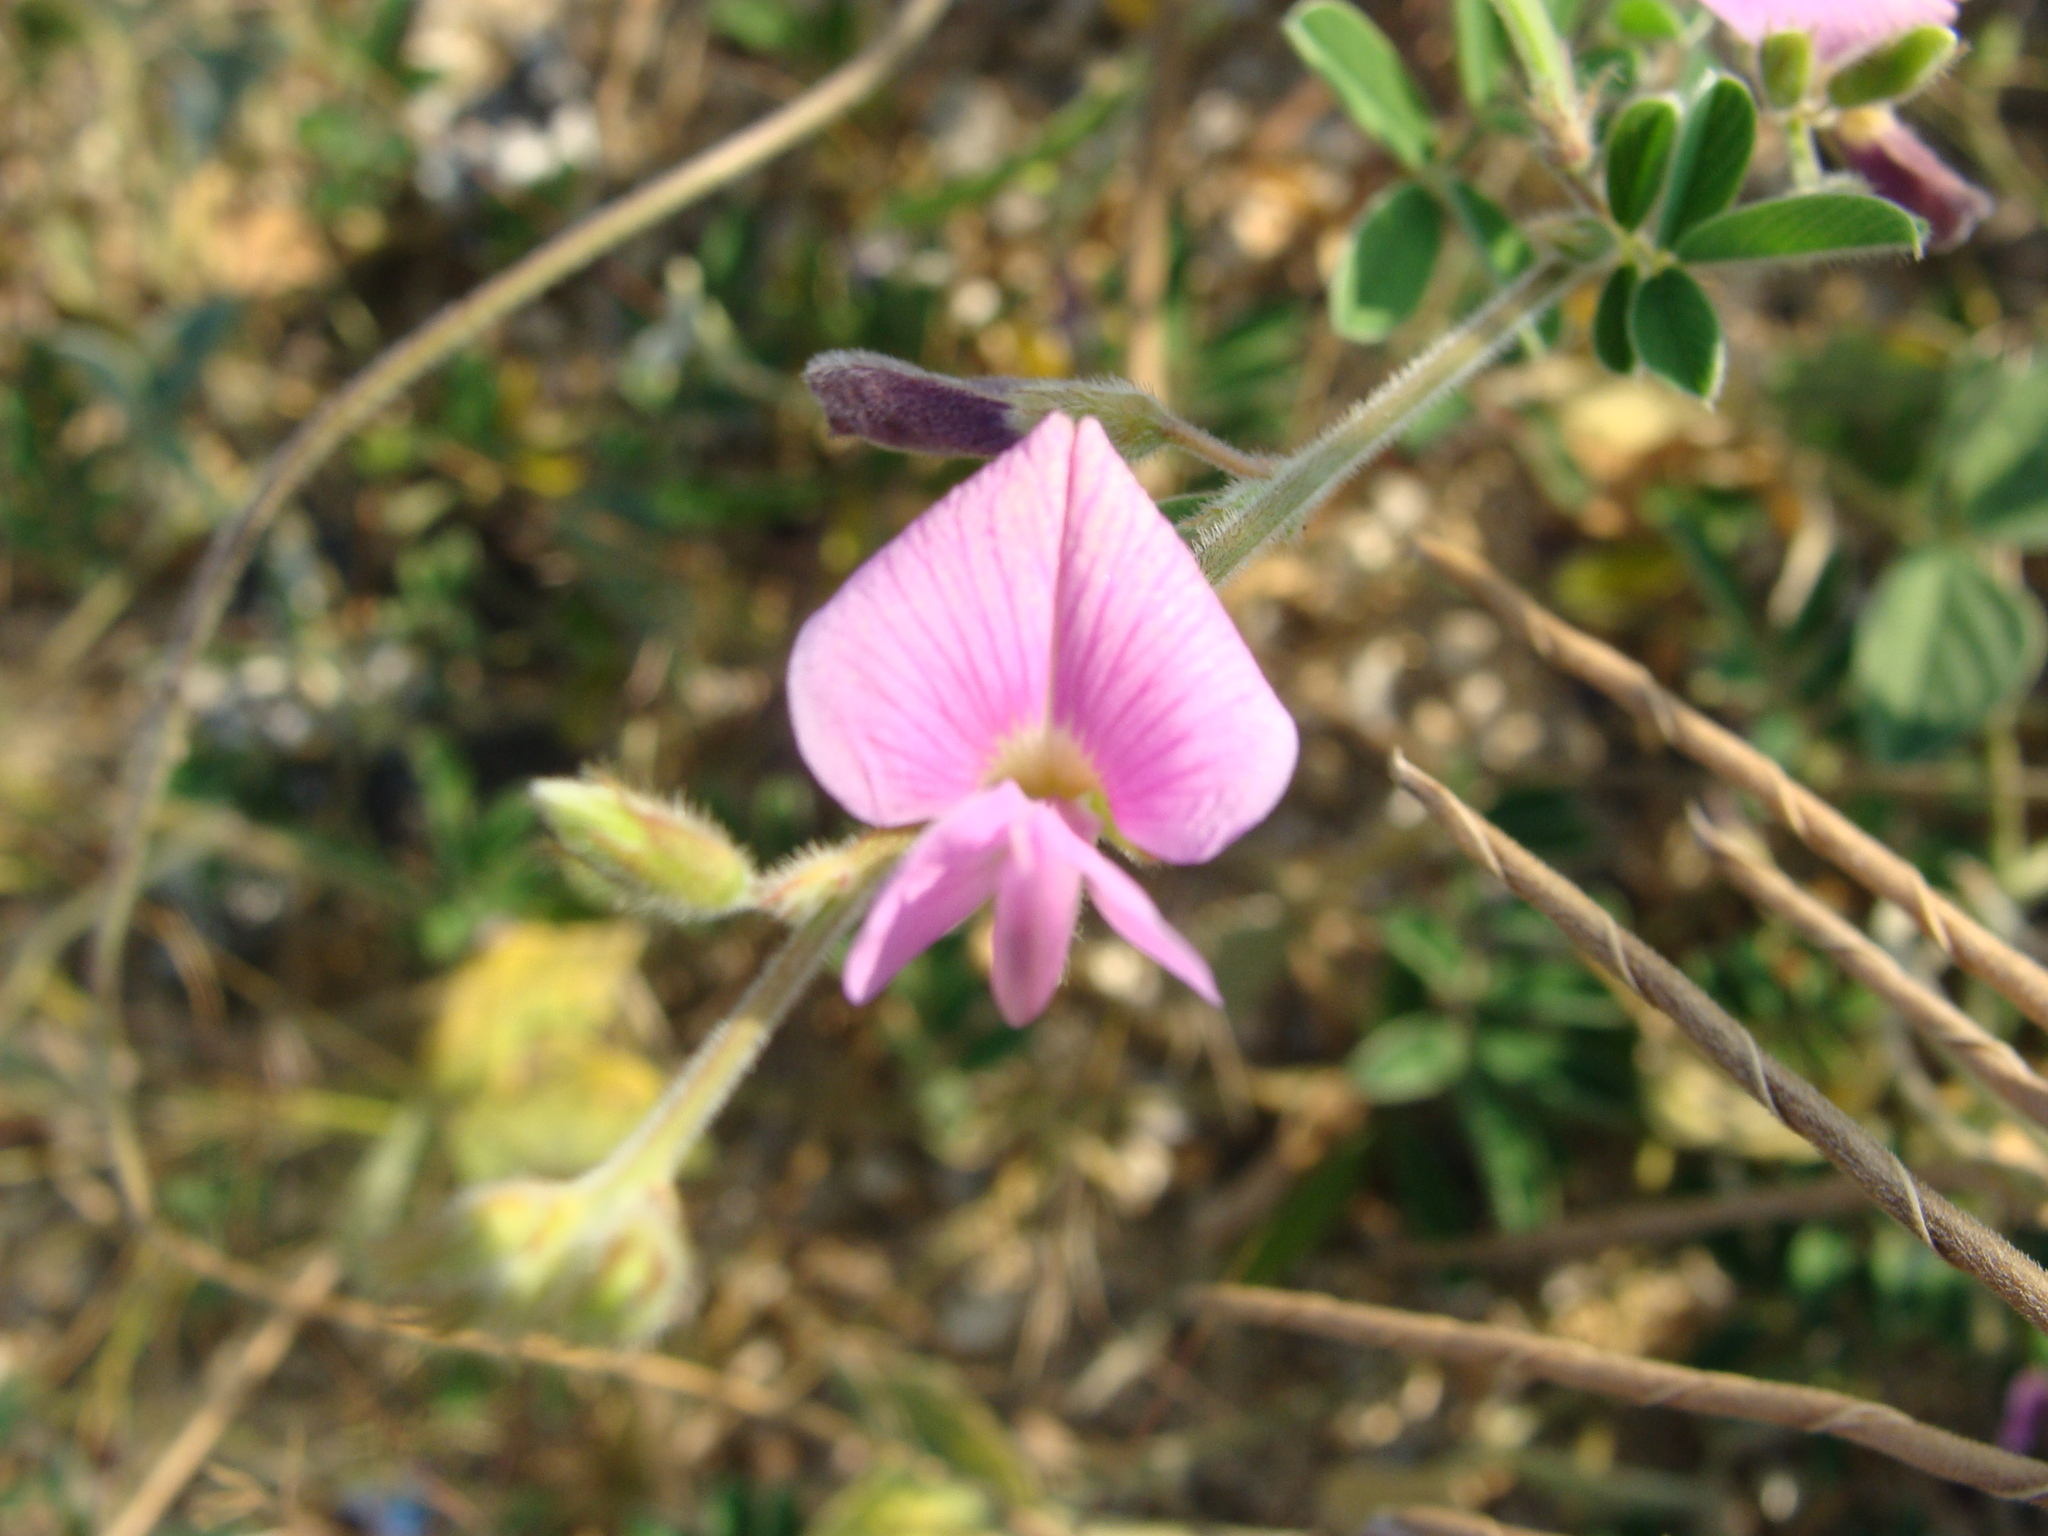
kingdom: Plantae
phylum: Tracheophyta
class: Magnoliopsida
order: Fabales
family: Fabaceae
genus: Tephrosia
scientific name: Tephrosia cinerea
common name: Ashen hoarypea
